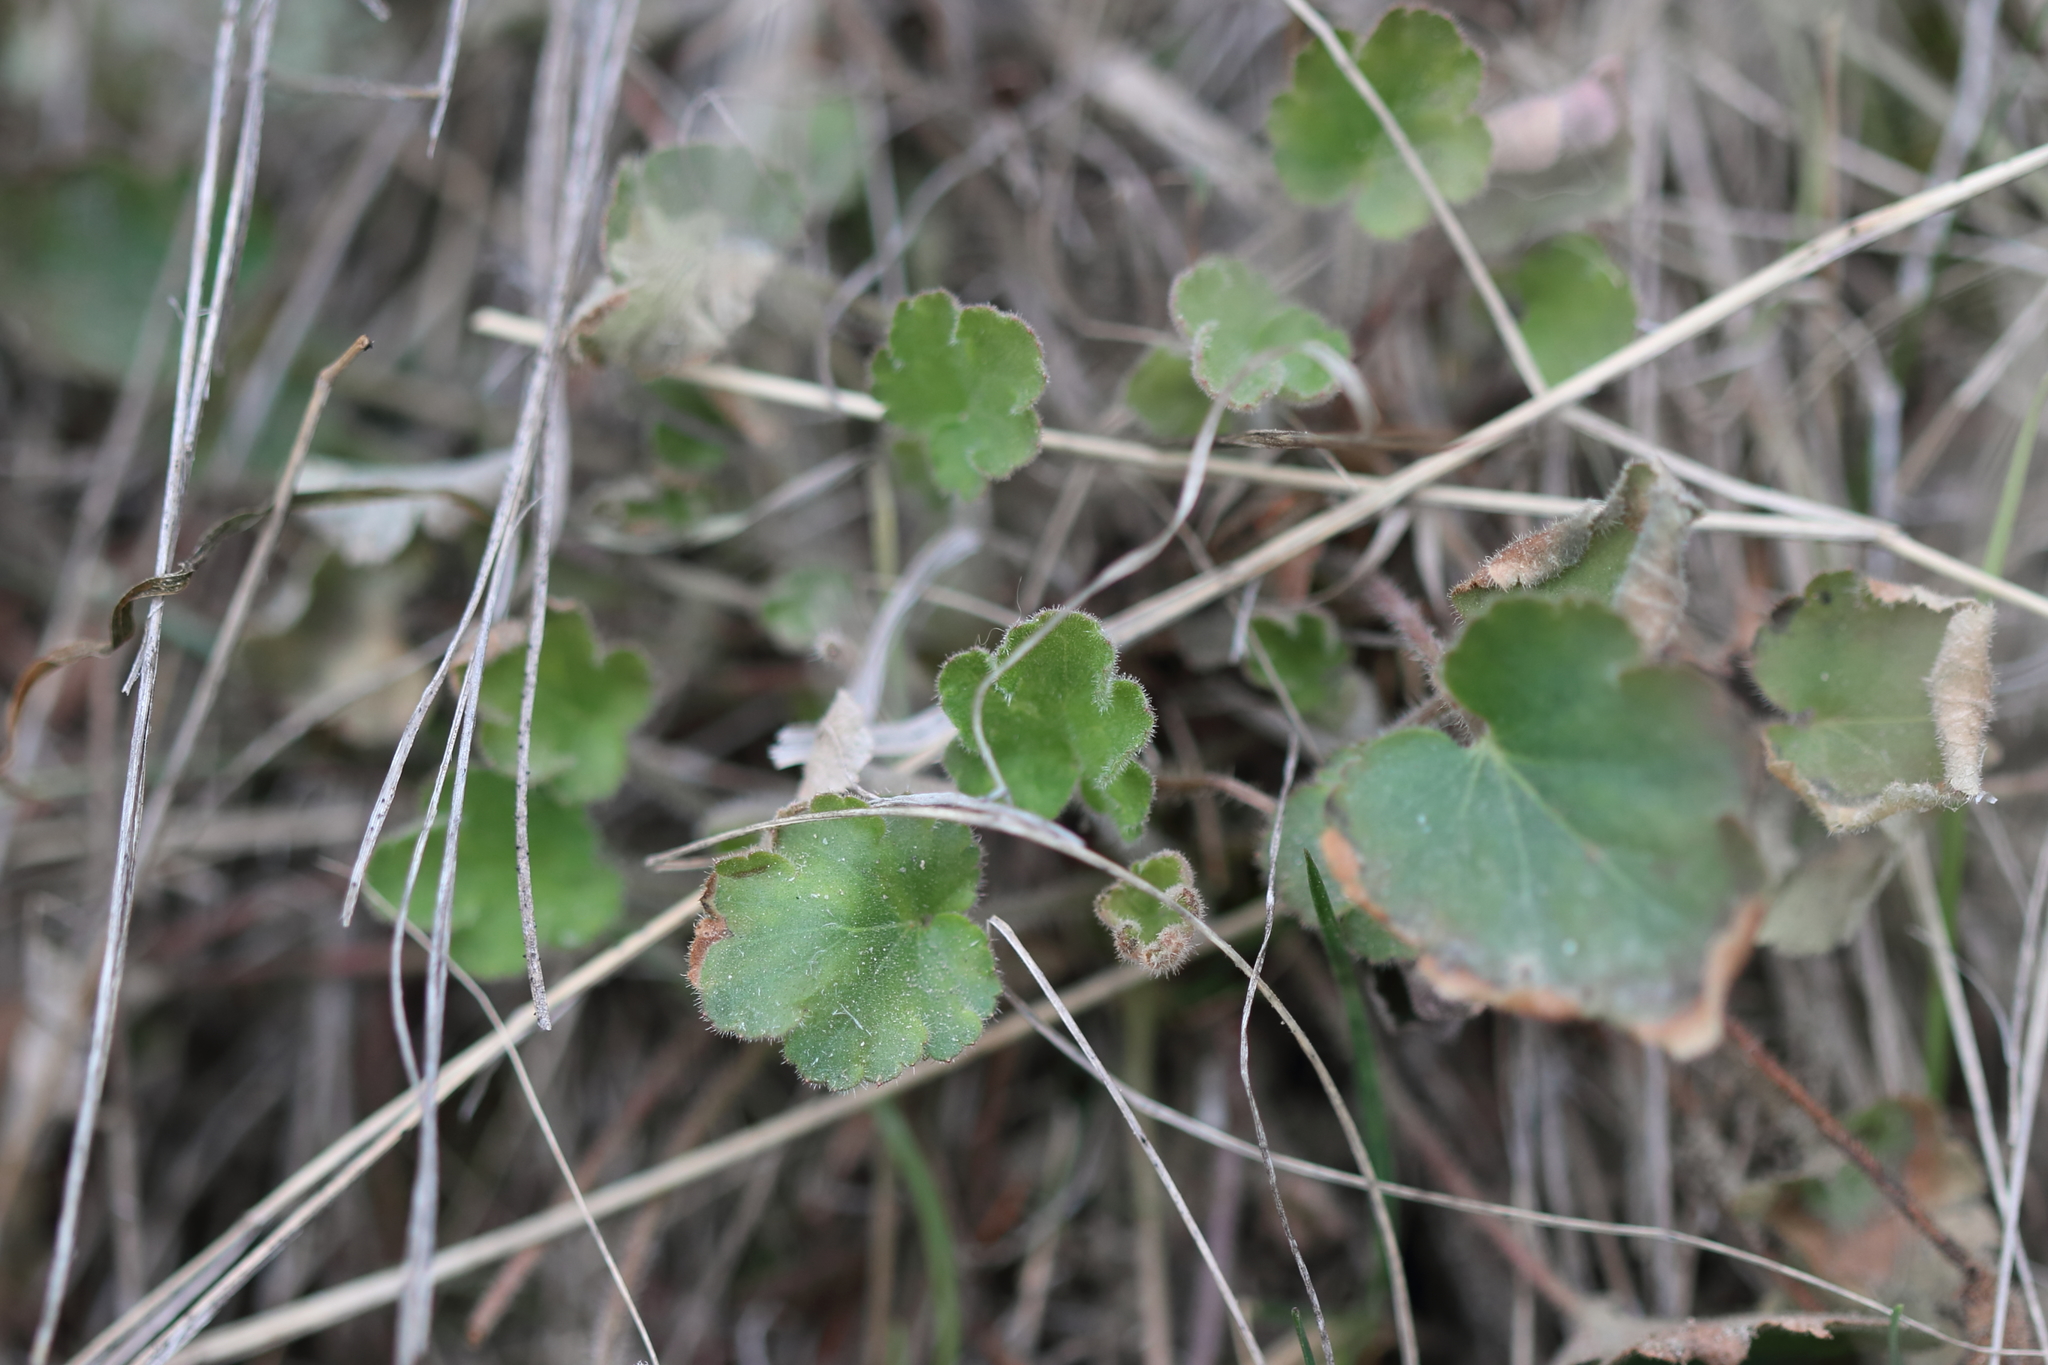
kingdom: Plantae
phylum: Tracheophyta
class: Magnoliopsida
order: Saxifragales
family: Saxifragaceae
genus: Heuchera
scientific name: Heuchera cylindrica
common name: Mat alumroot
